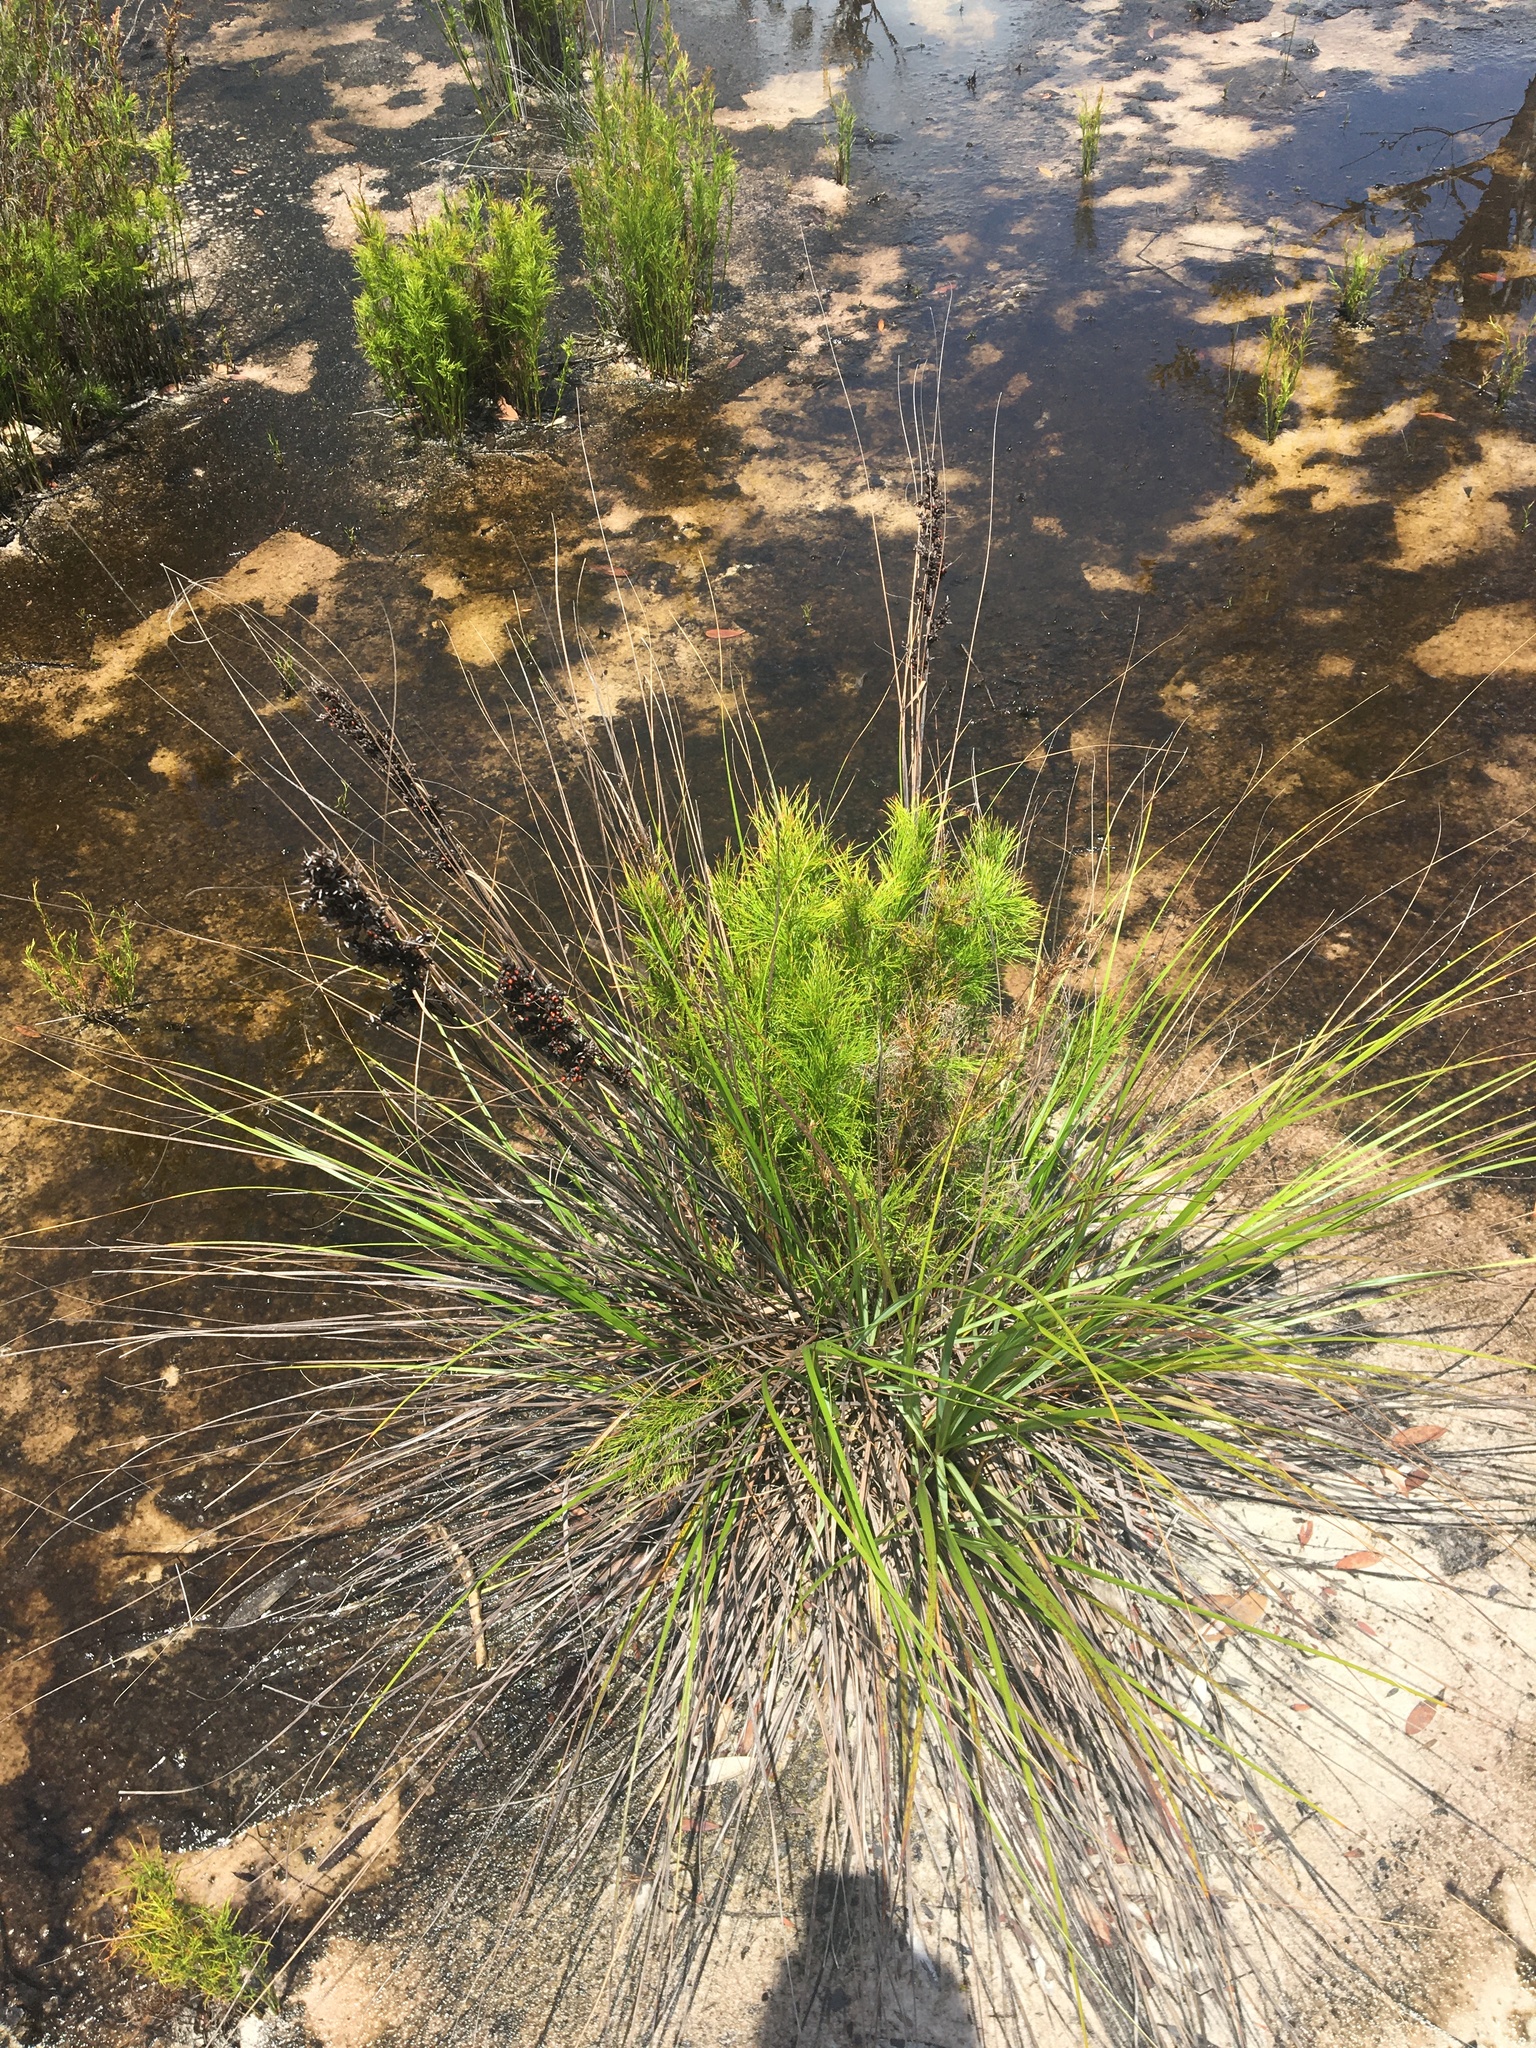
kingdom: Plantae
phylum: Tracheophyta
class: Liliopsida
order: Poales
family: Cyperaceae
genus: Gahnia
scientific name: Gahnia sieberiana
